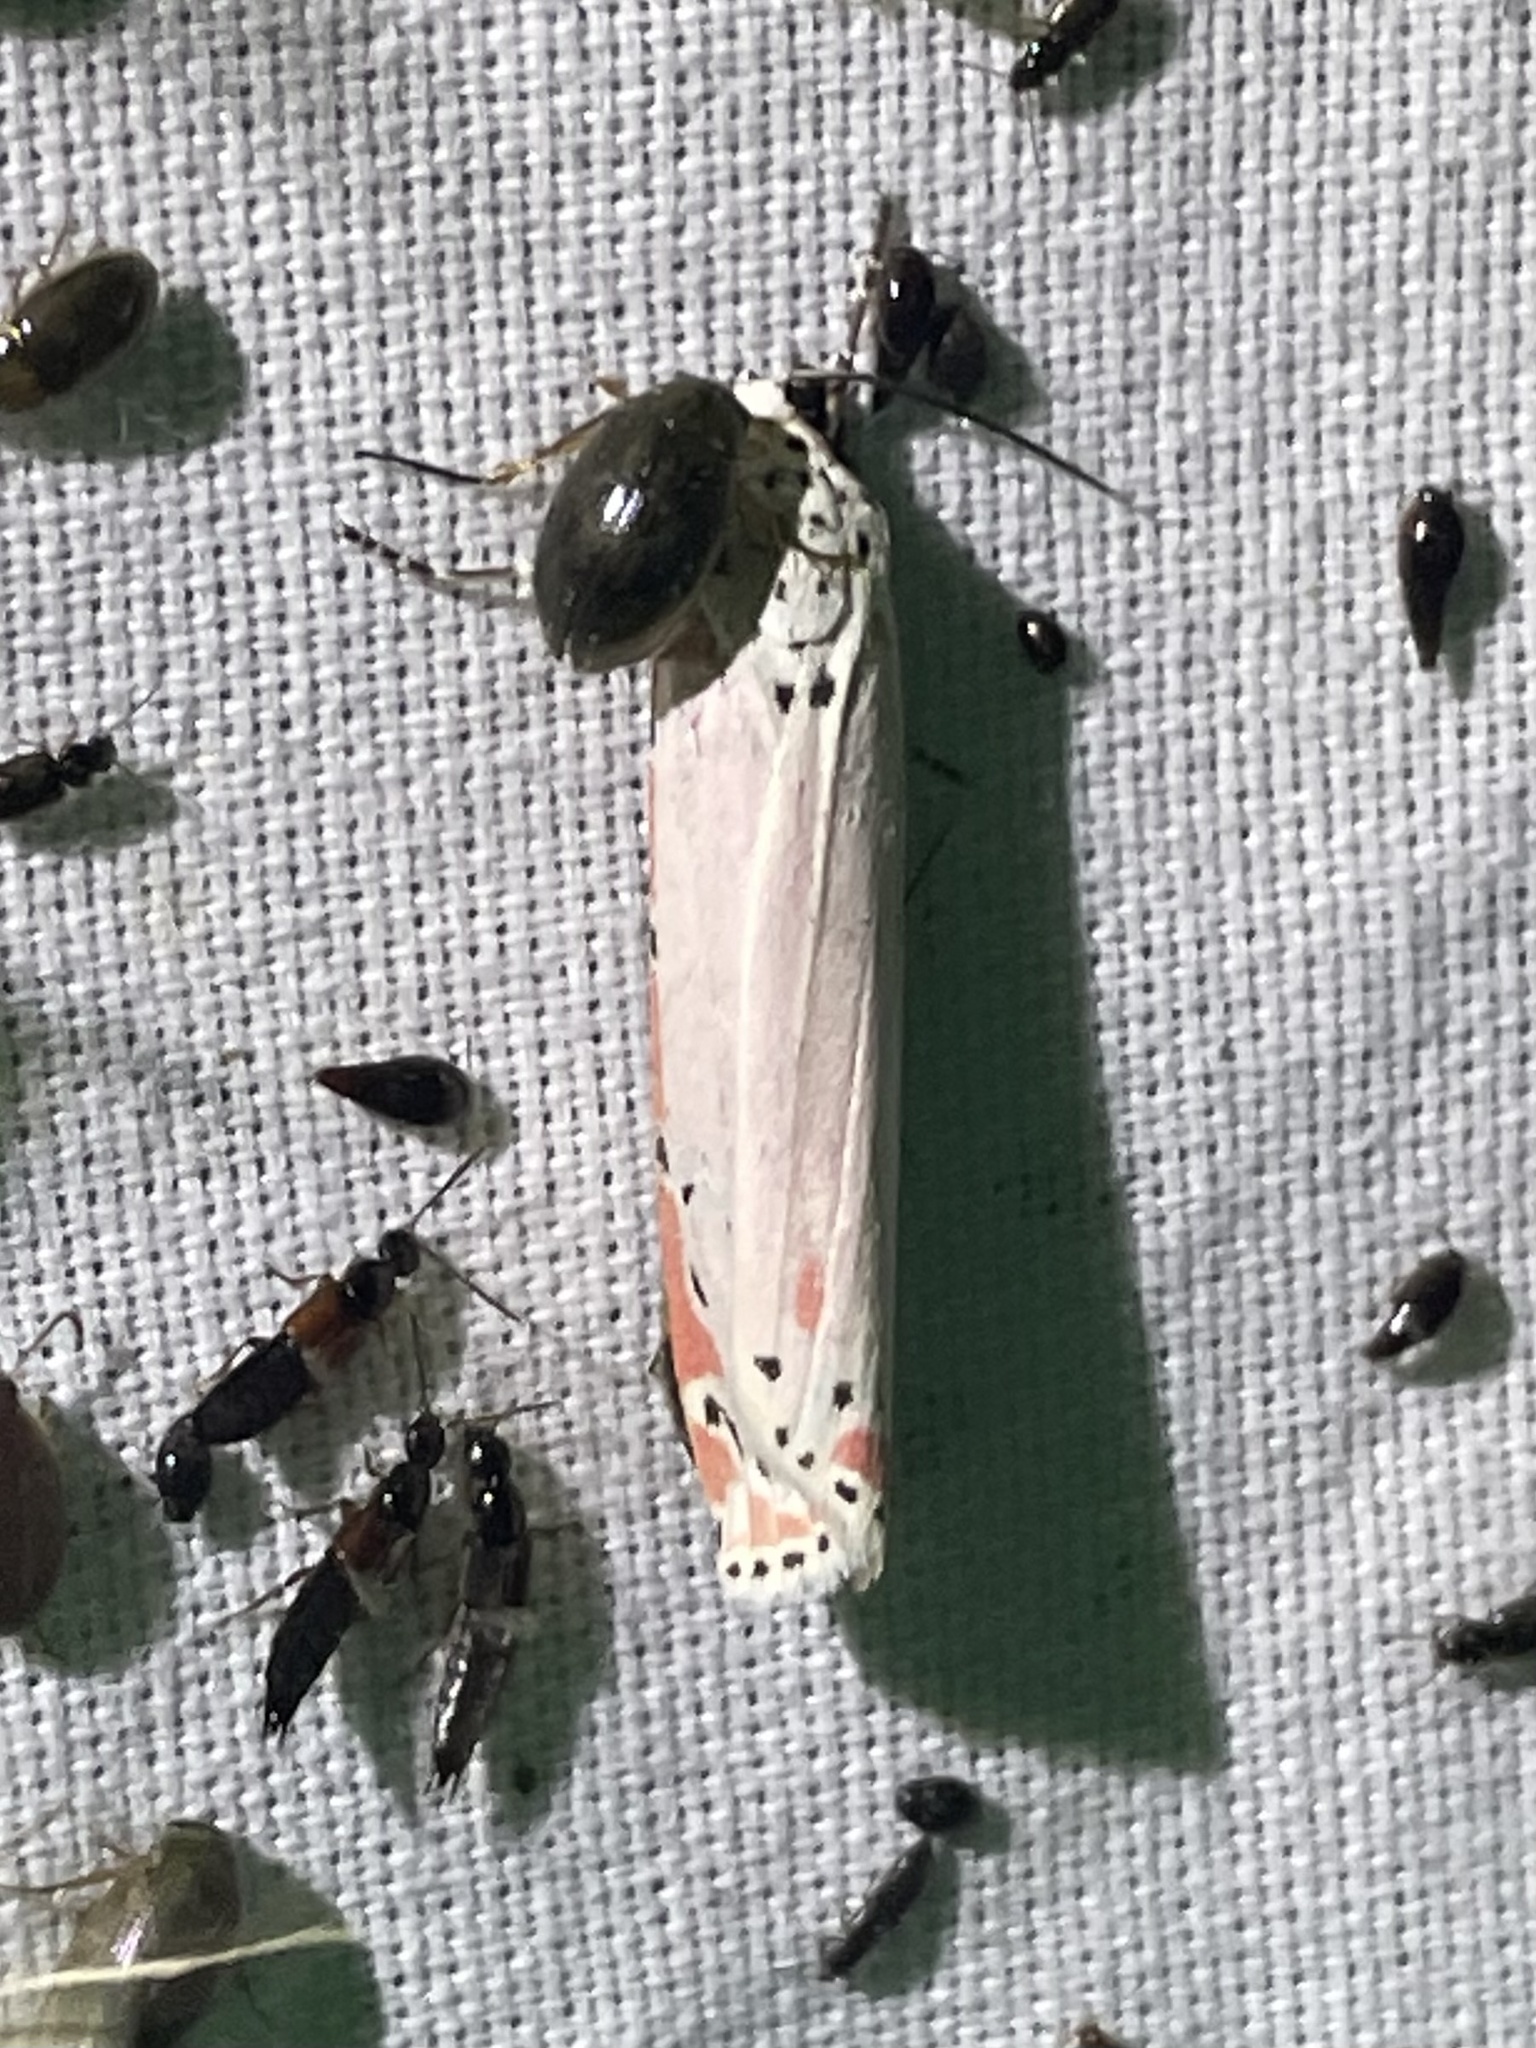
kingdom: Animalia
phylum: Arthropoda
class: Insecta
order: Lepidoptera
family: Erebidae
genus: Utetheisa
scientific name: Utetheisa ornatrix
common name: Beautiful utetheisa
